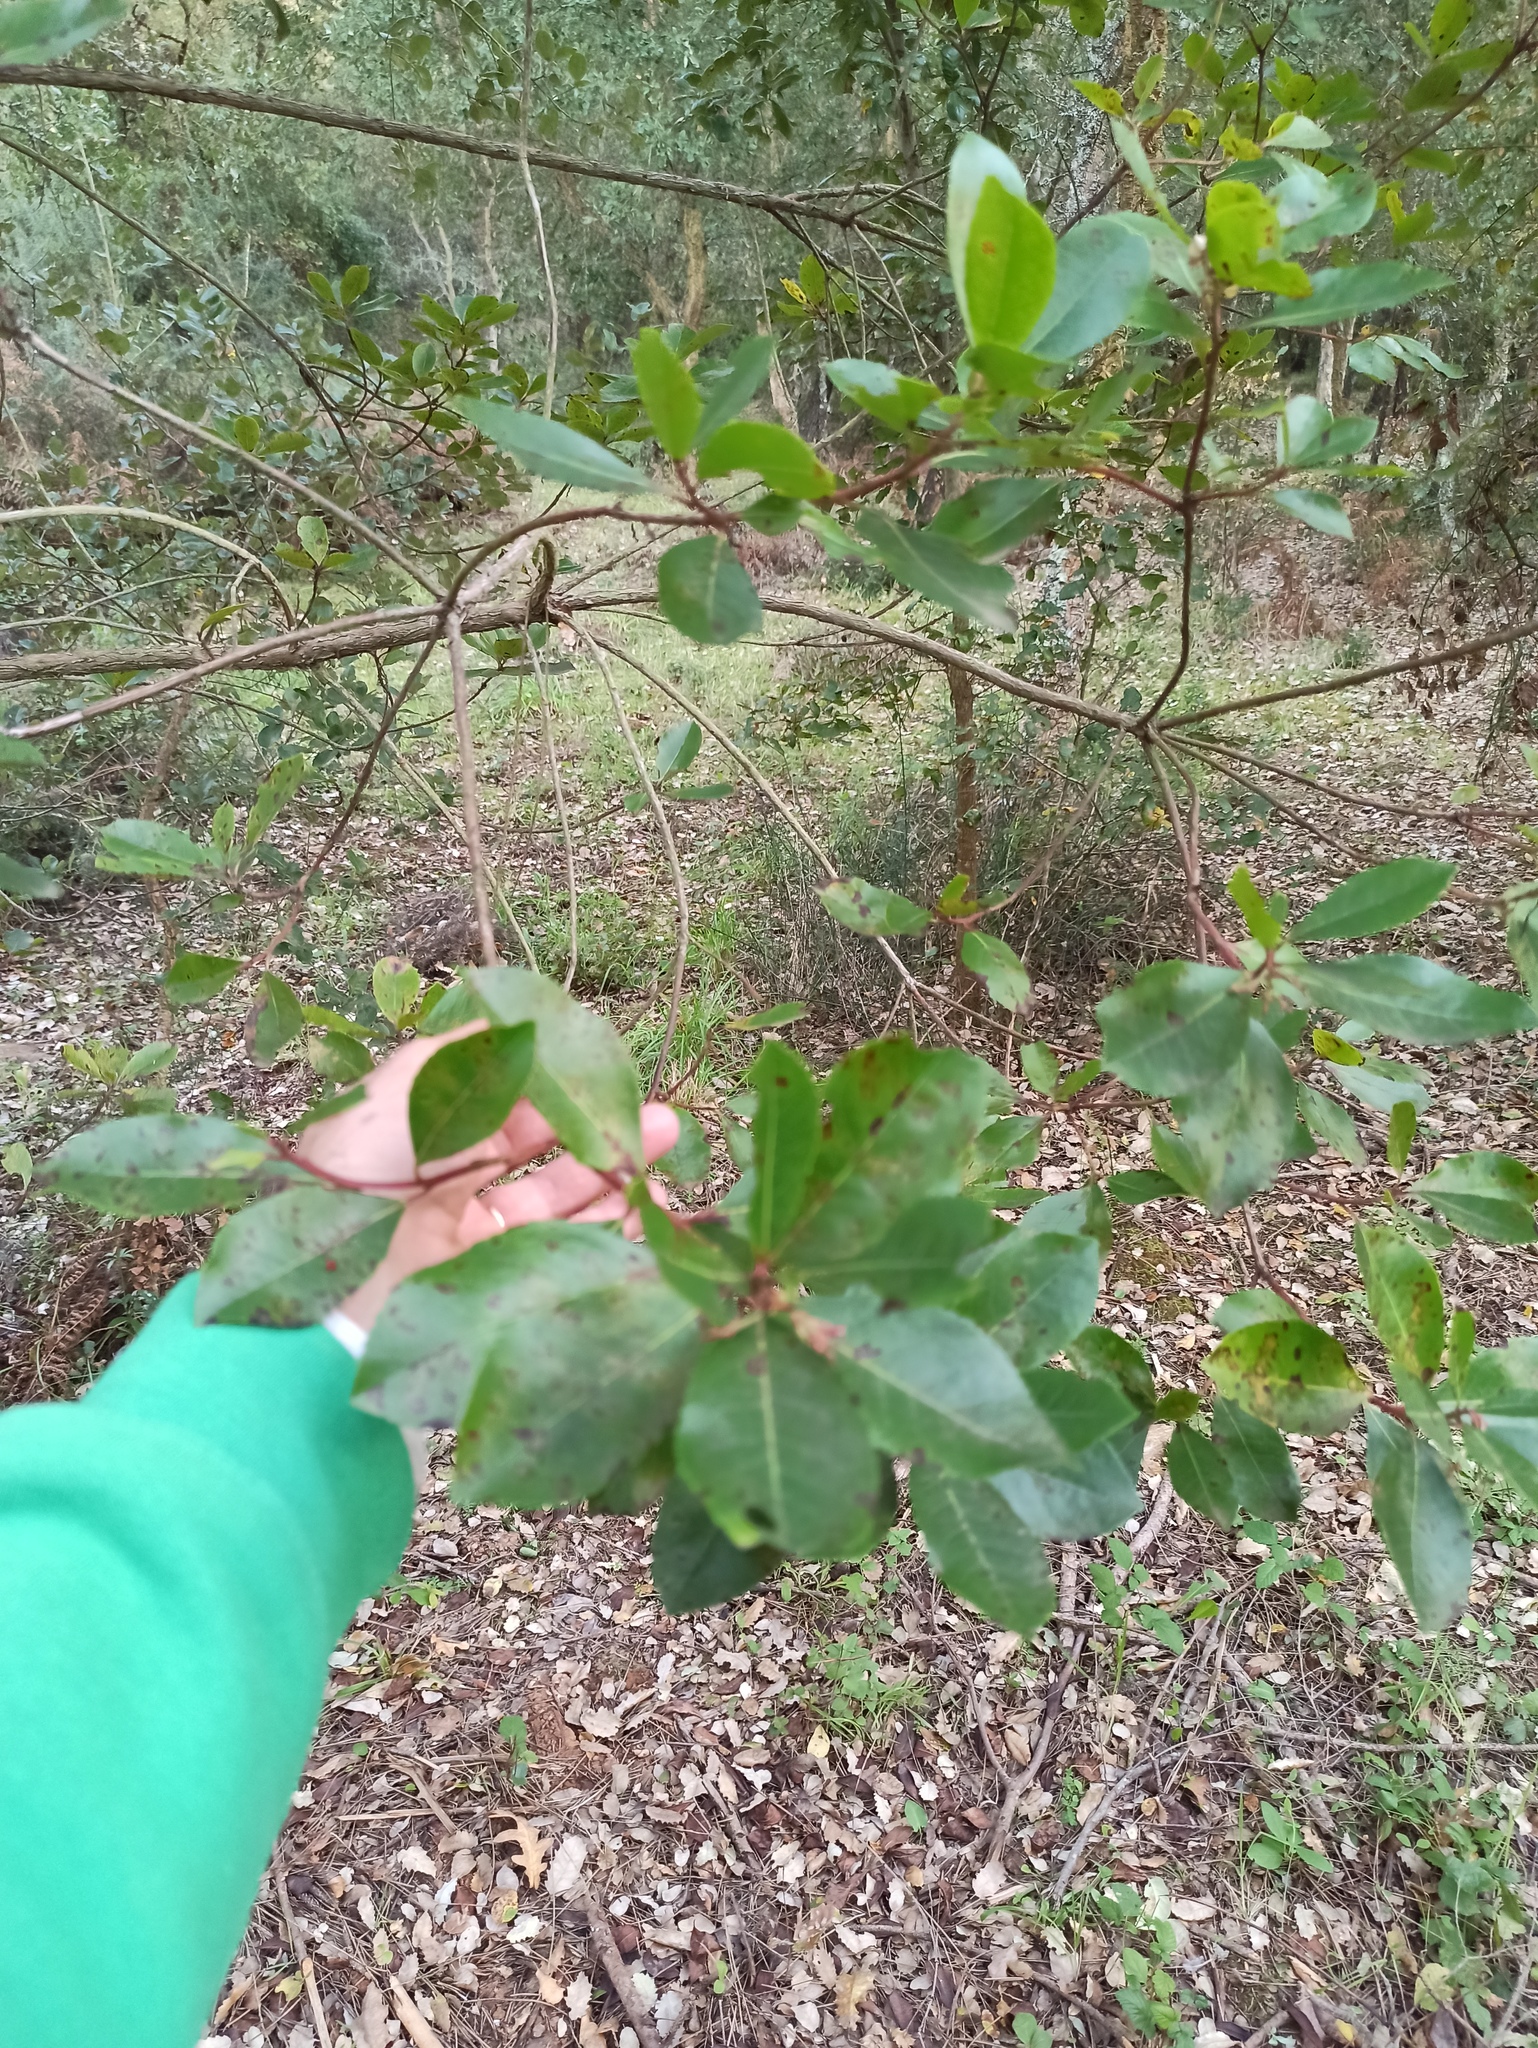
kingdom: Plantae
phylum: Tracheophyta
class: Magnoliopsida
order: Ericales
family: Ericaceae
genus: Arbutus
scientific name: Arbutus unedo
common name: Strawberry-tree
